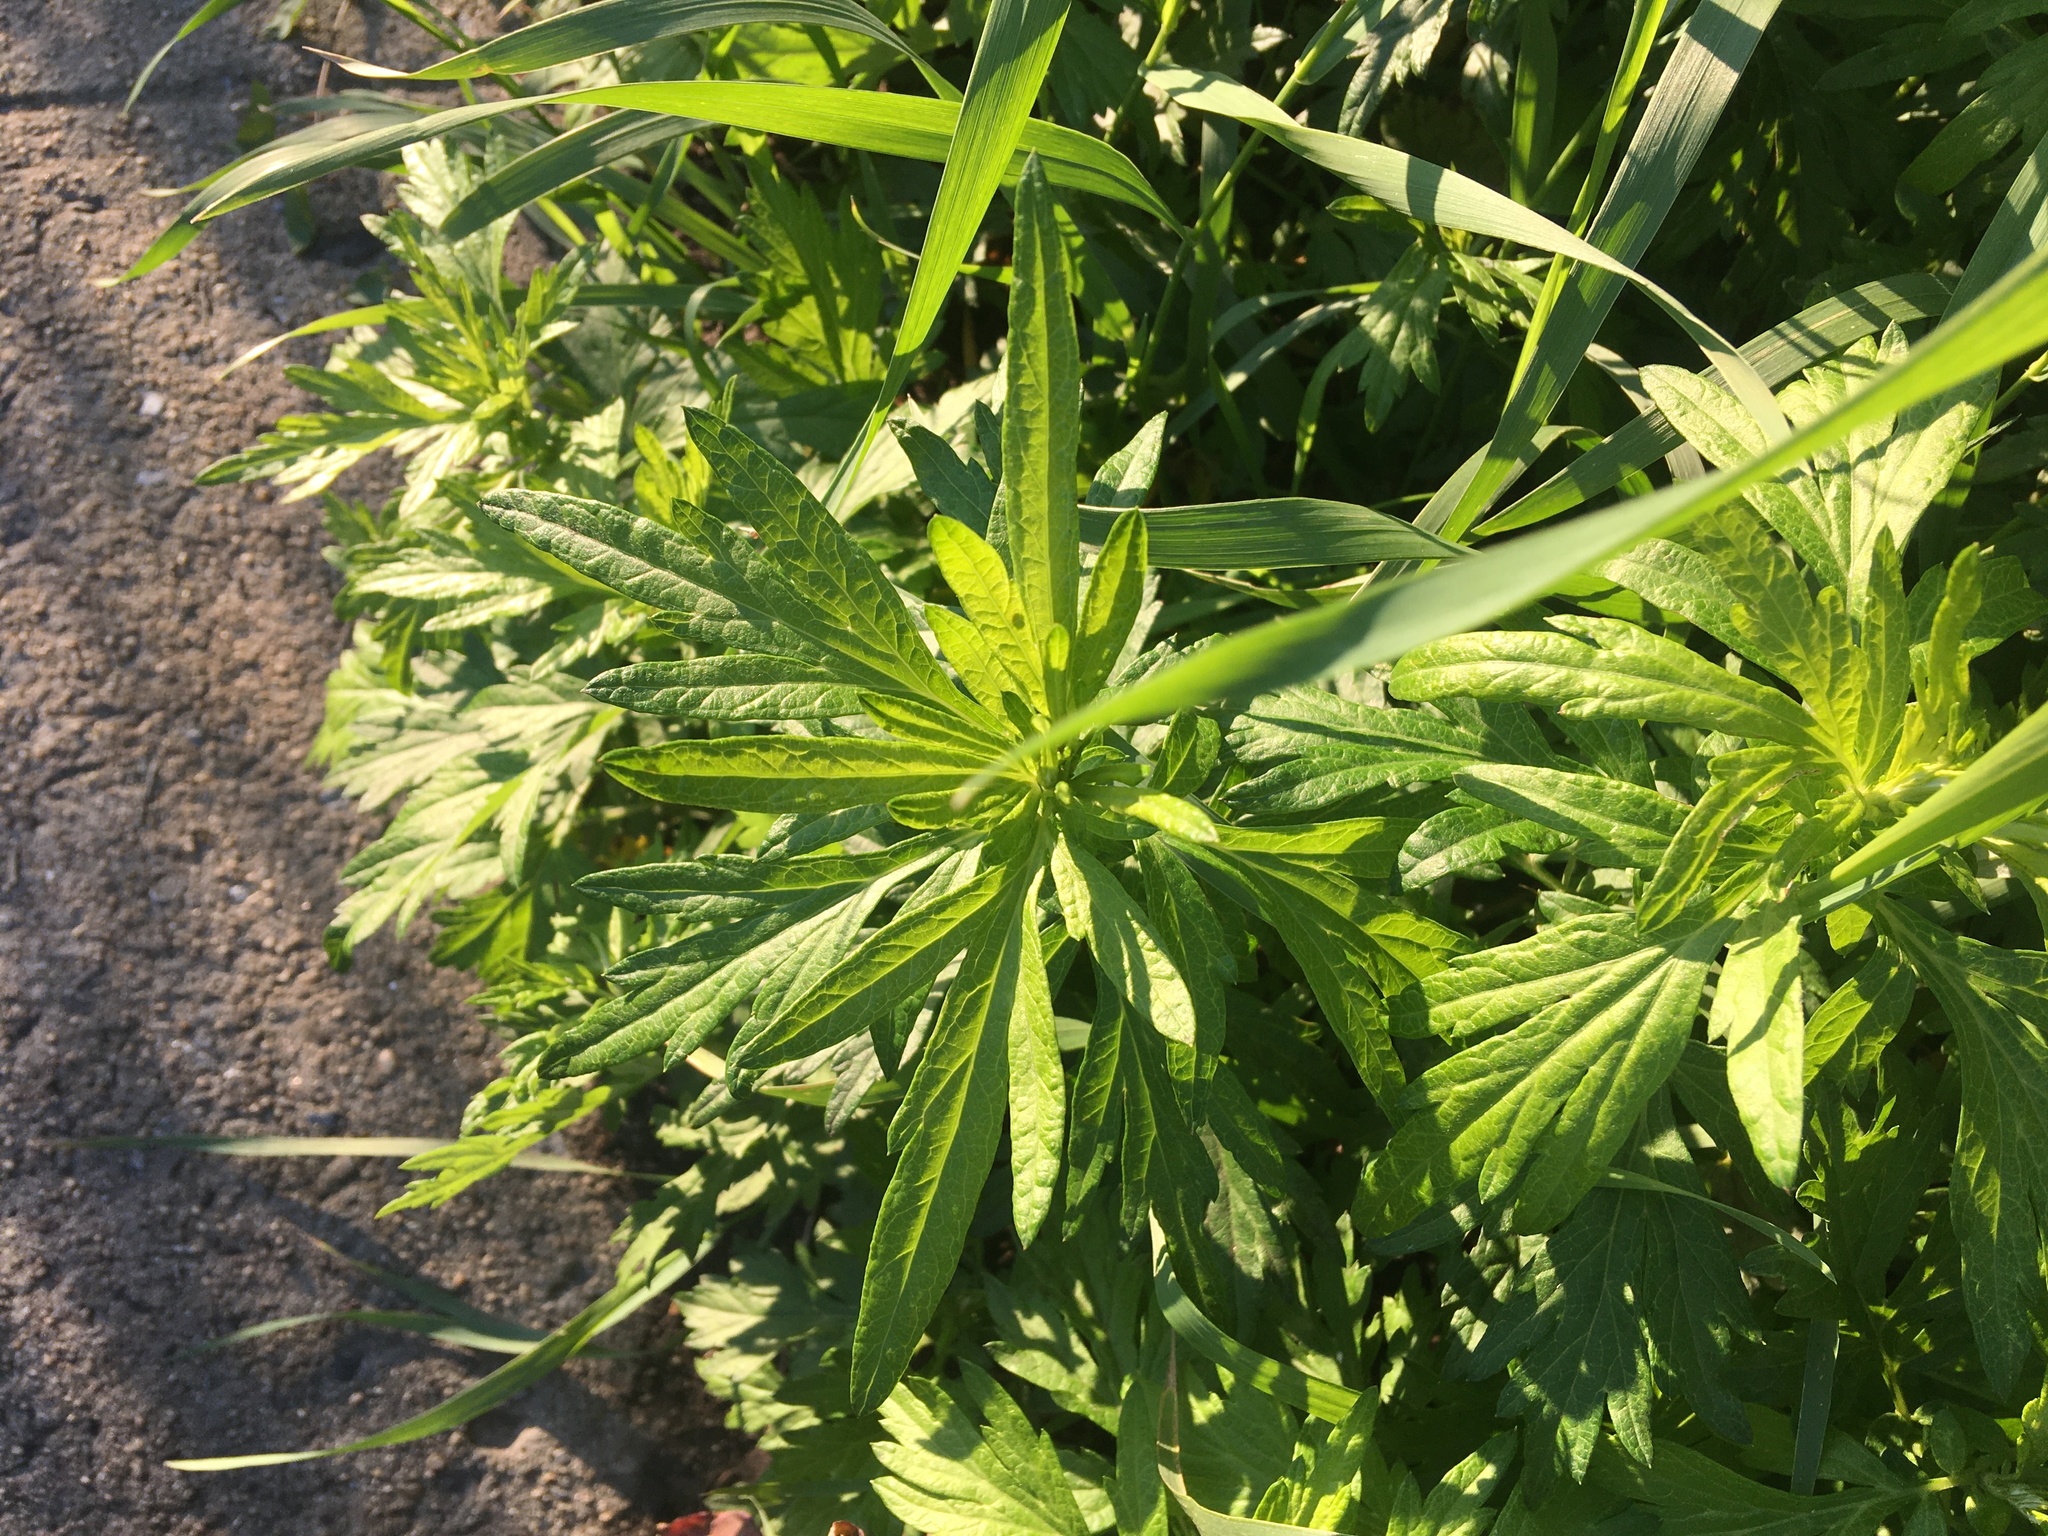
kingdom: Plantae
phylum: Tracheophyta
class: Magnoliopsida
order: Asterales
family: Asteraceae
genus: Artemisia
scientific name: Artemisia vulgaris
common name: Mugwort
